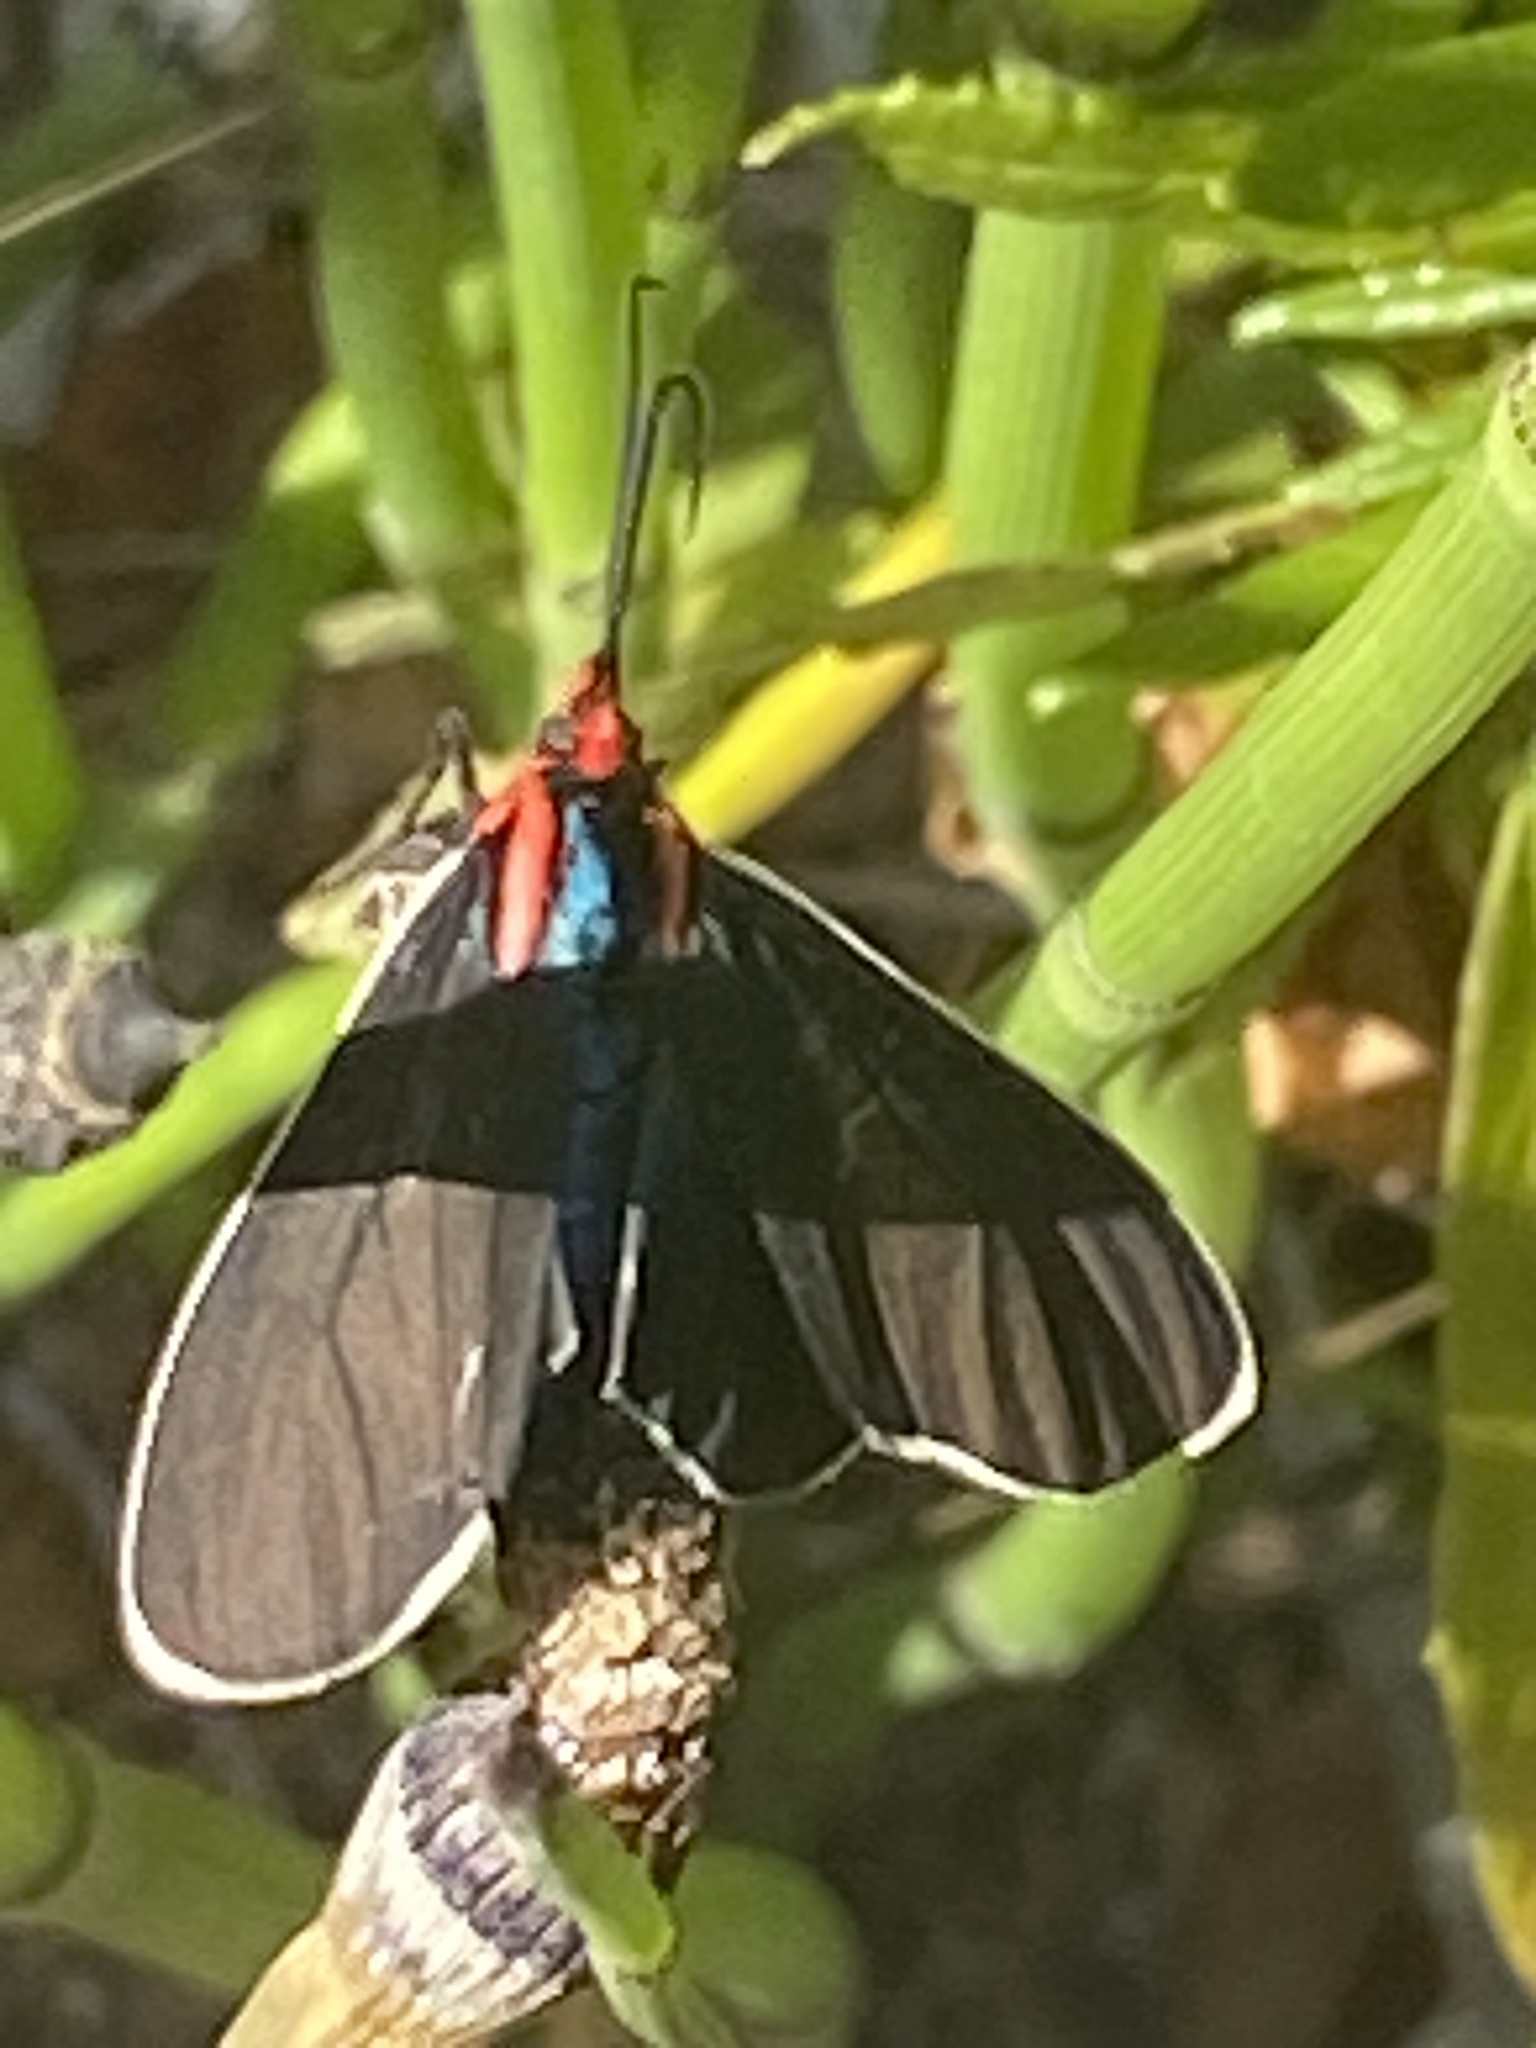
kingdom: Animalia
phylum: Arthropoda
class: Insecta
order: Lepidoptera
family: Erebidae
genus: Ctenucha
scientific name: Ctenucha multifaria
